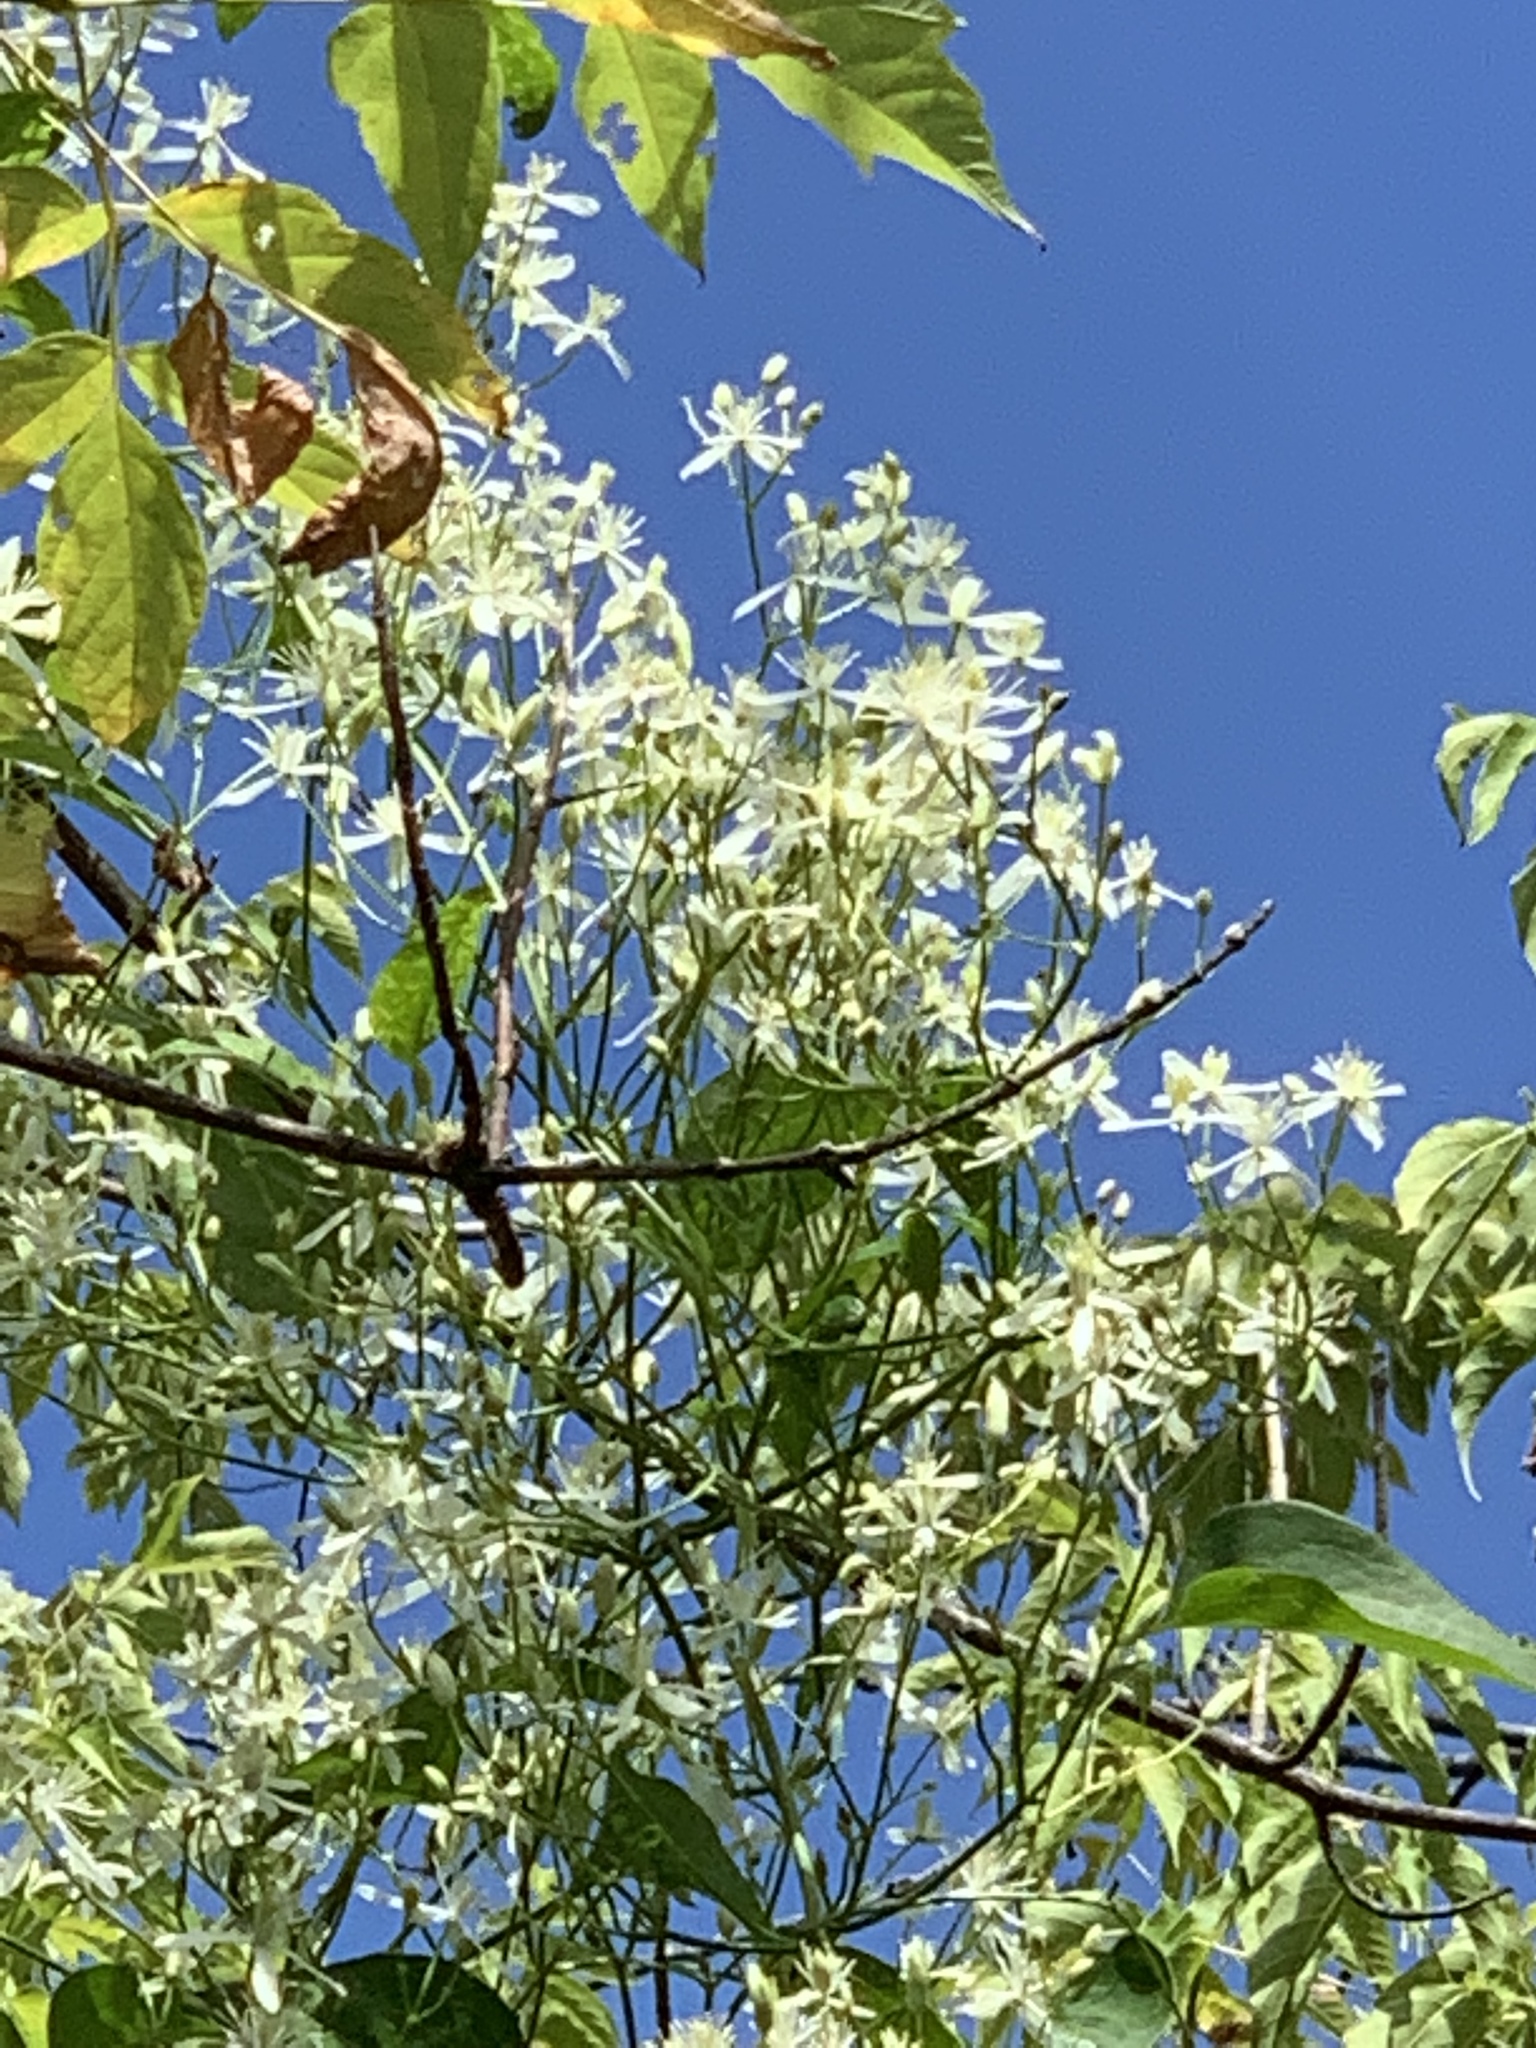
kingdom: Plantae
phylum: Tracheophyta
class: Magnoliopsida
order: Ranunculales
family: Ranunculaceae
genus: Clematis
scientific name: Clematis terniflora
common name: Sweet autumn clematis
